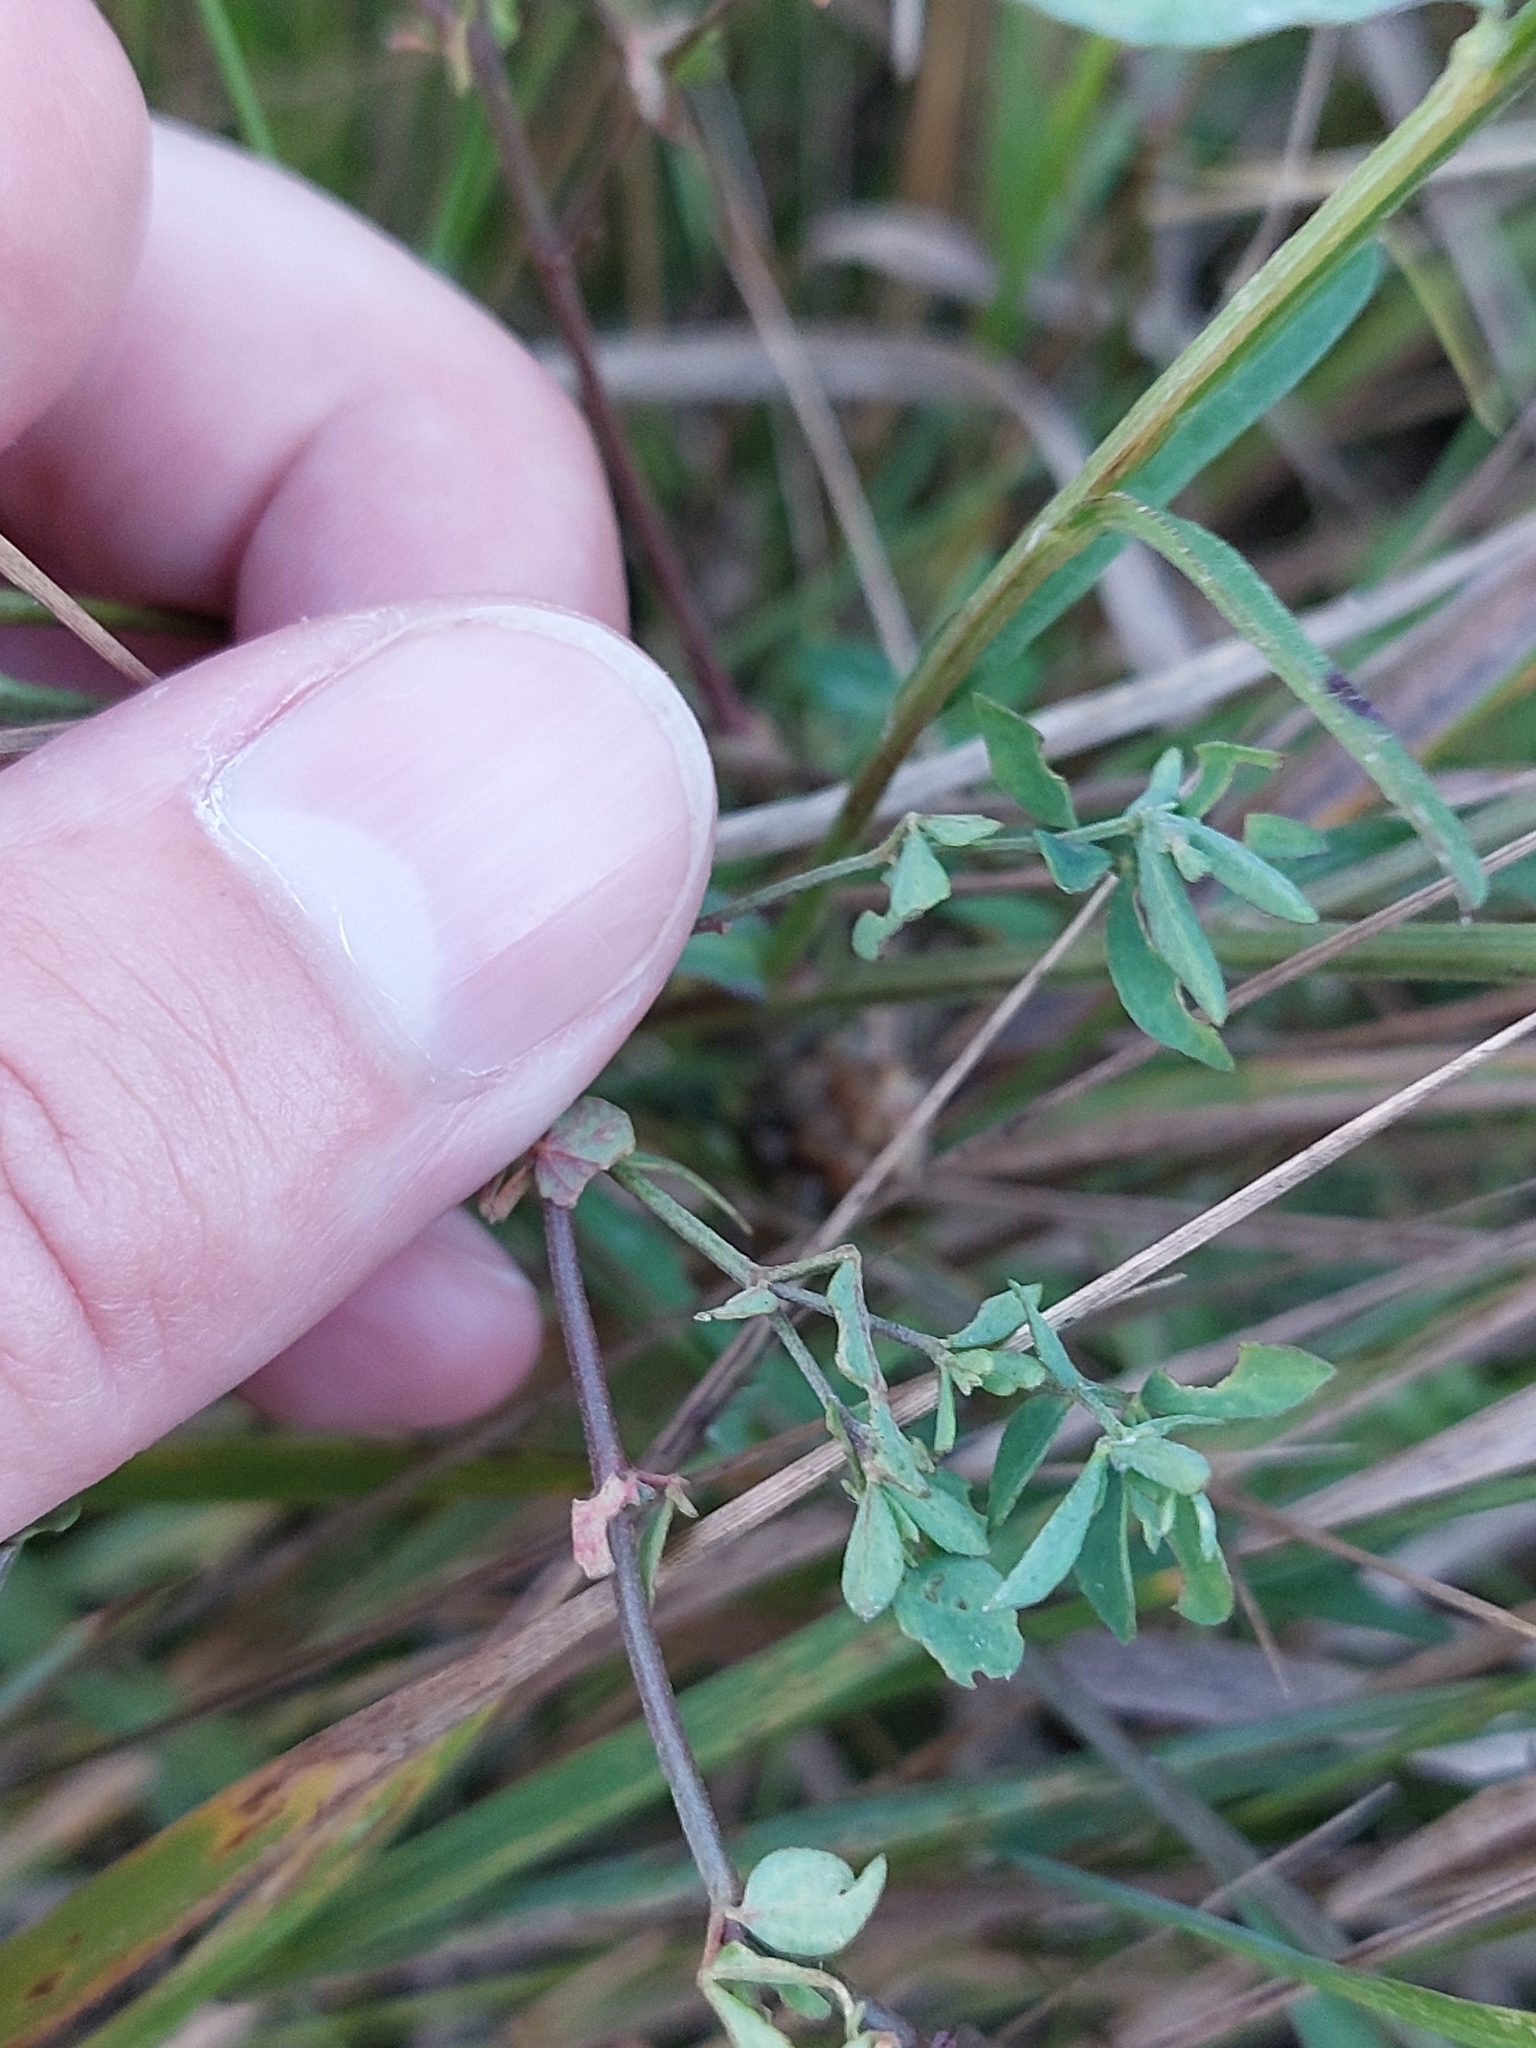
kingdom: Plantae
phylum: Tracheophyta
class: Magnoliopsida
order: Fabales
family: Fabaceae
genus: Lotus
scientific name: Lotus corniculatus
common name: Common bird's-foot-trefoil
